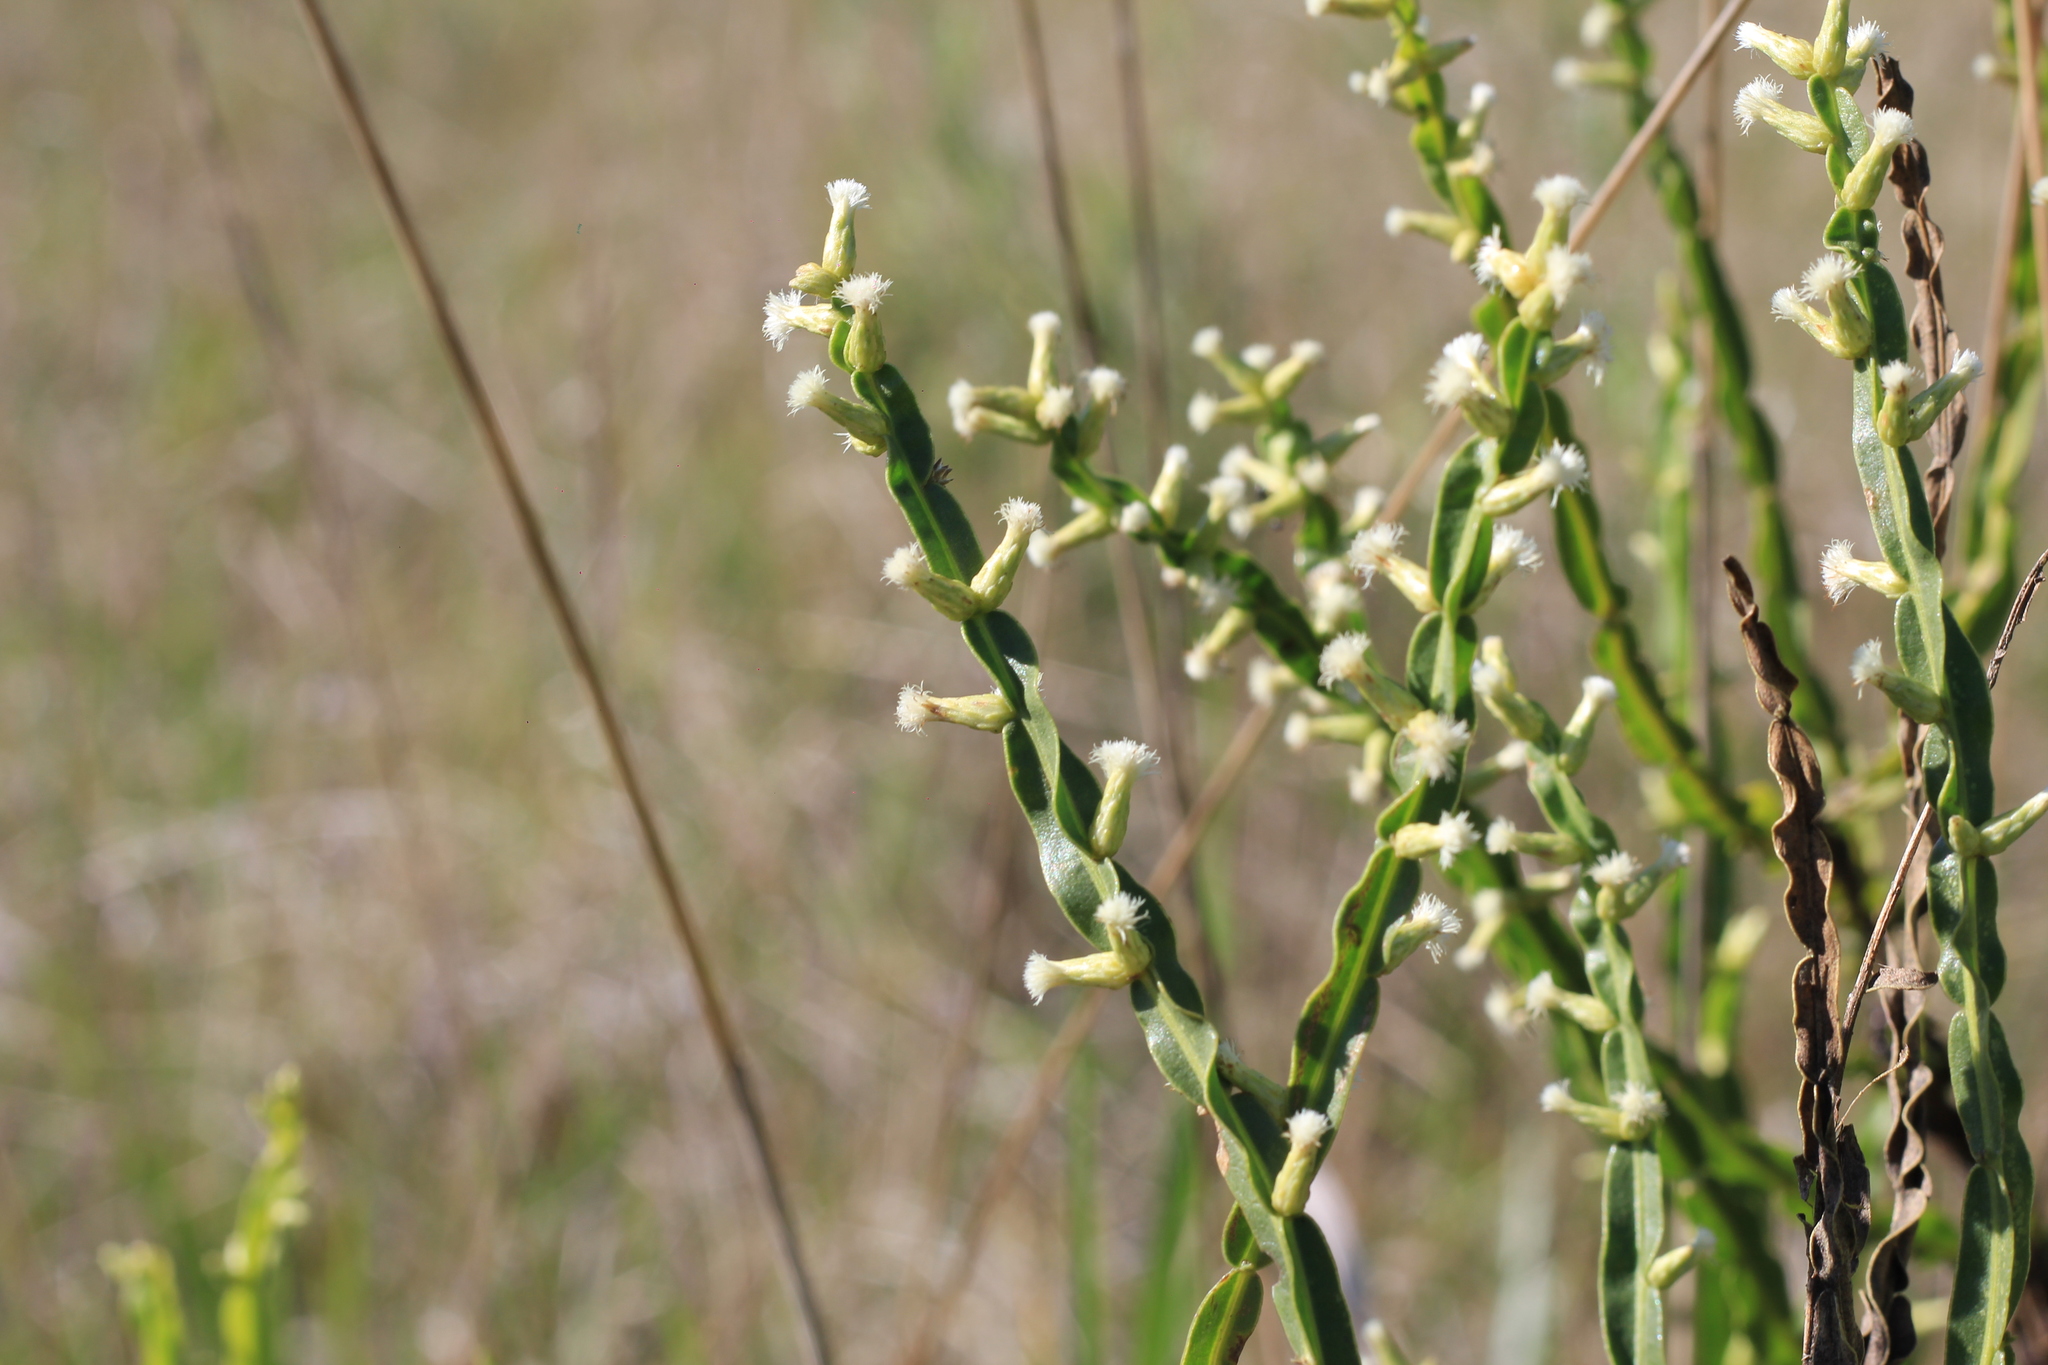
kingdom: Plantae
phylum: Tracheophyta
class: Magnoliopsida
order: Asterales
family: Asteraceae
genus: Baccharis
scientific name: Baccharis trimera
